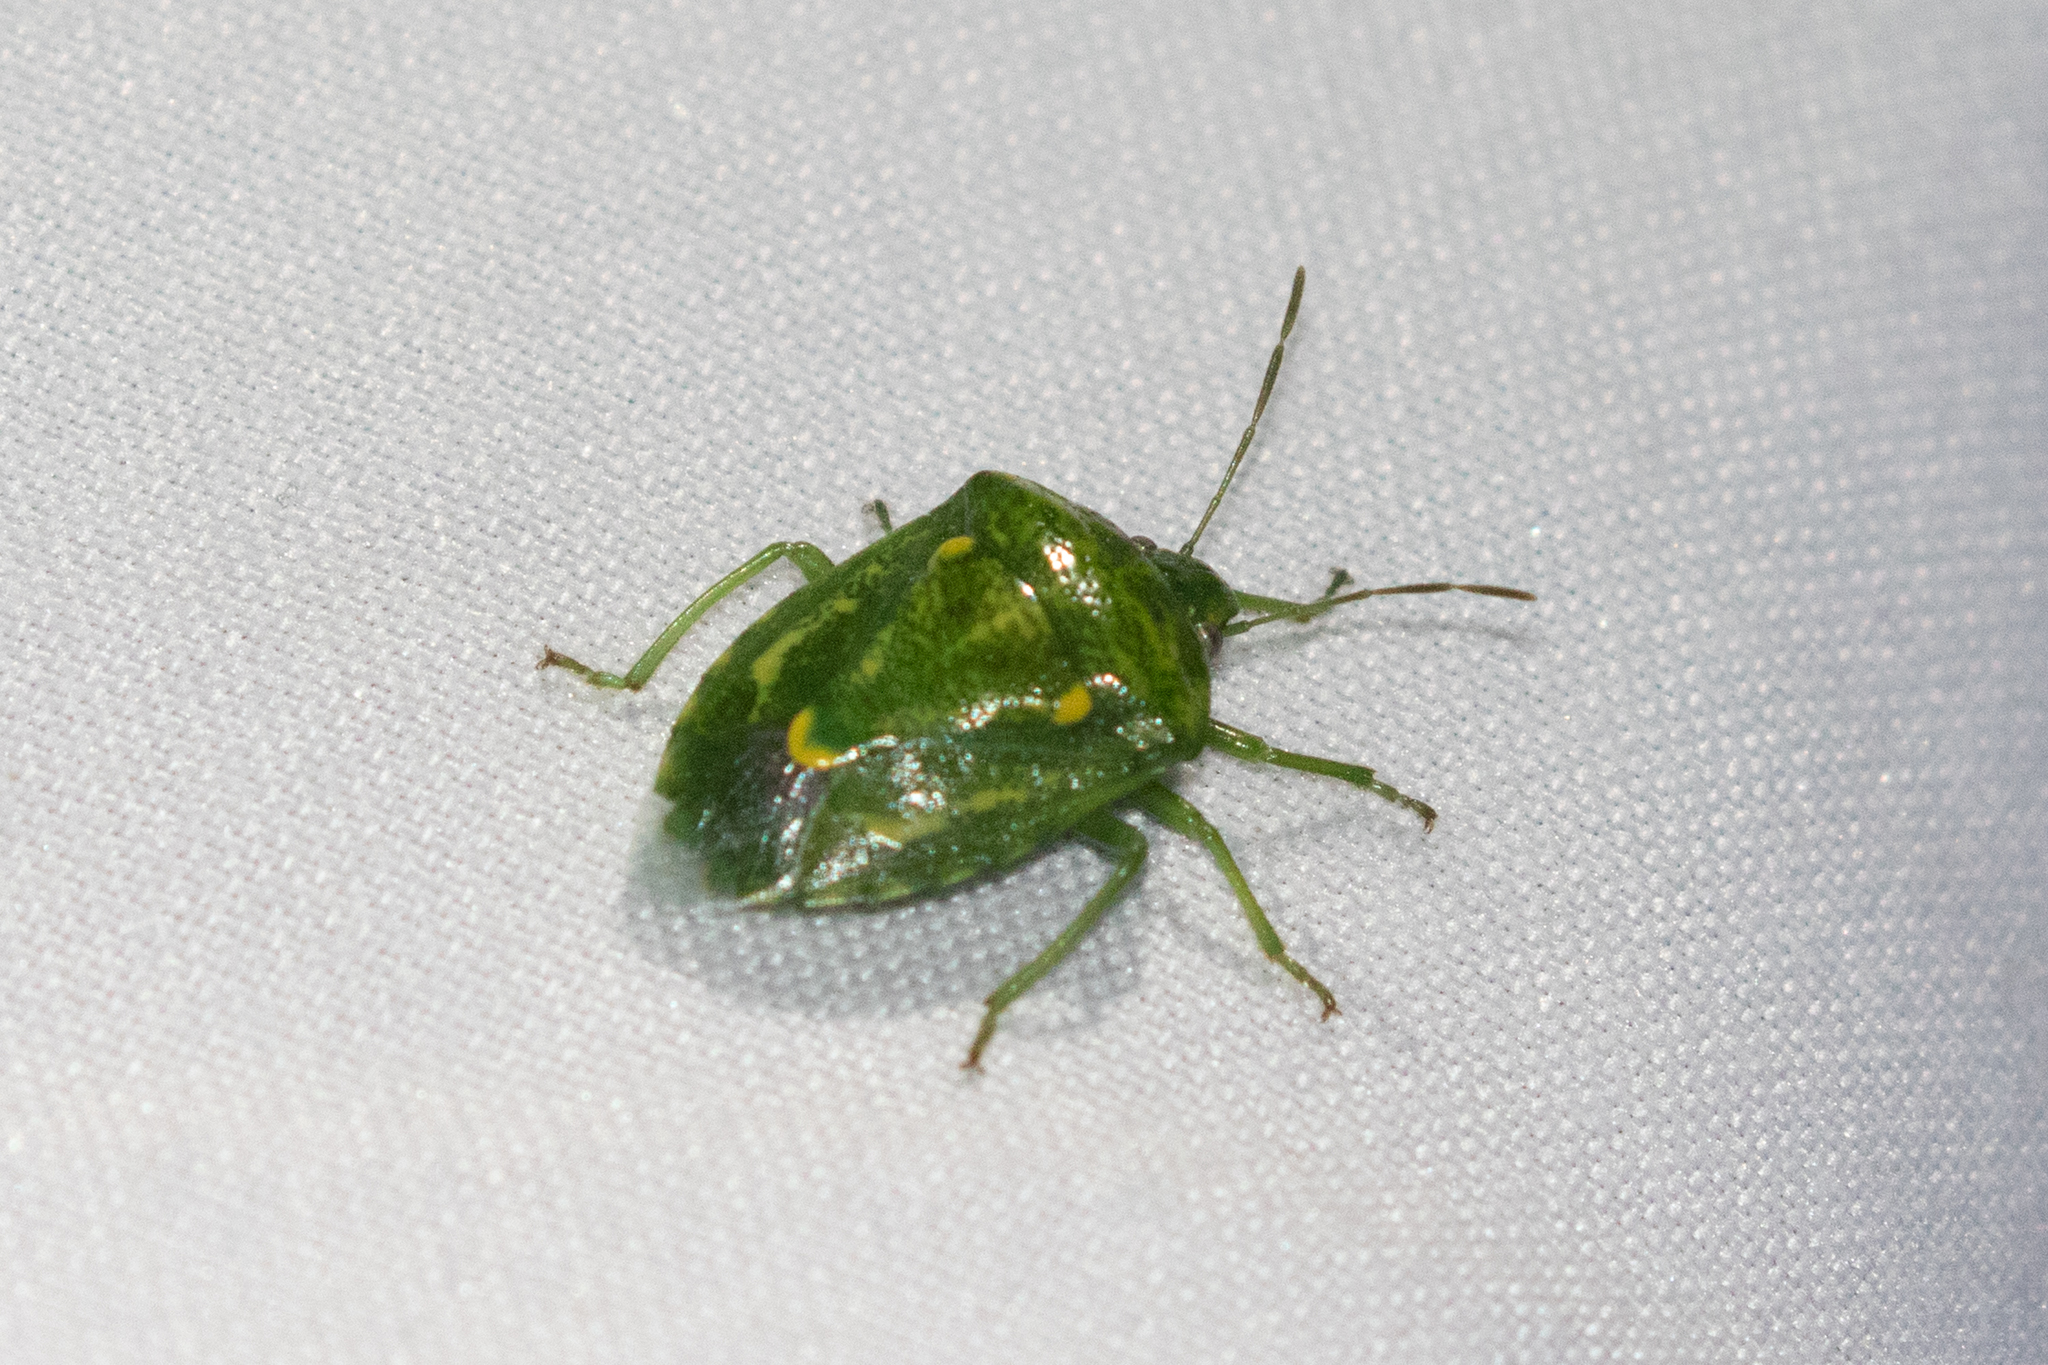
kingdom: Animalia
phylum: Arthropoda
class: Insecta
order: Hemiptera
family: Pentatomidae
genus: Banasa
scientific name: Banasa euchlora
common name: Cedar berry bug
